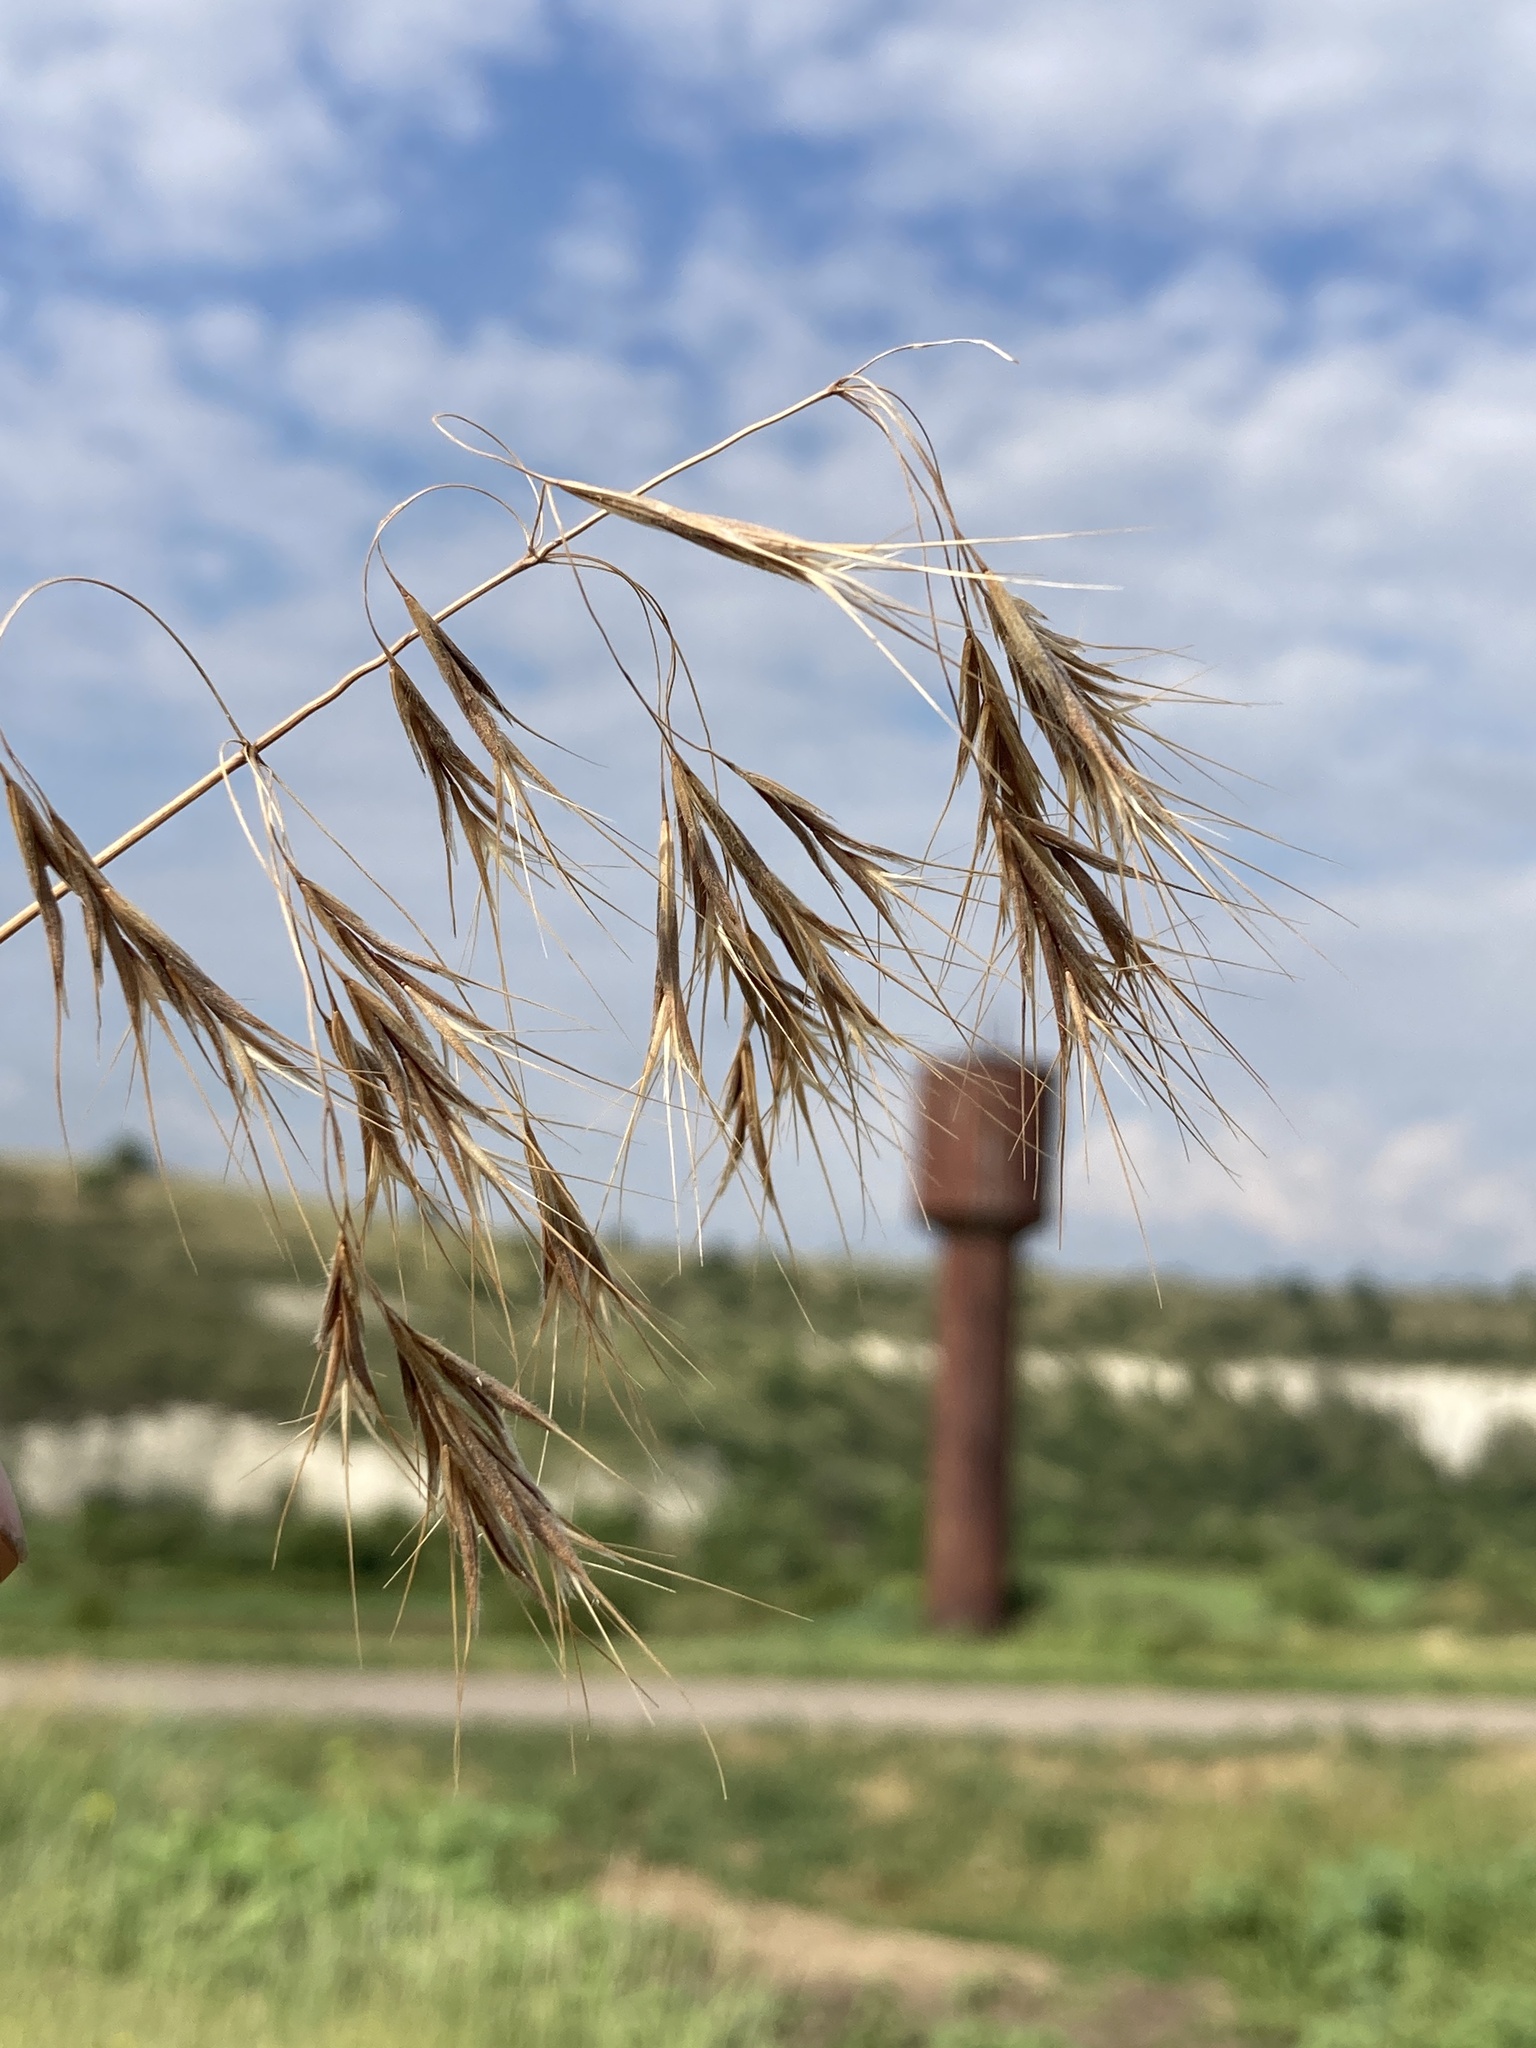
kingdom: Plantae
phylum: Tracheophyta
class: Liliopsida
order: Poales
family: Poaceae
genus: Bromus
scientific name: Bromus tectorum
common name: Cheatgrass
